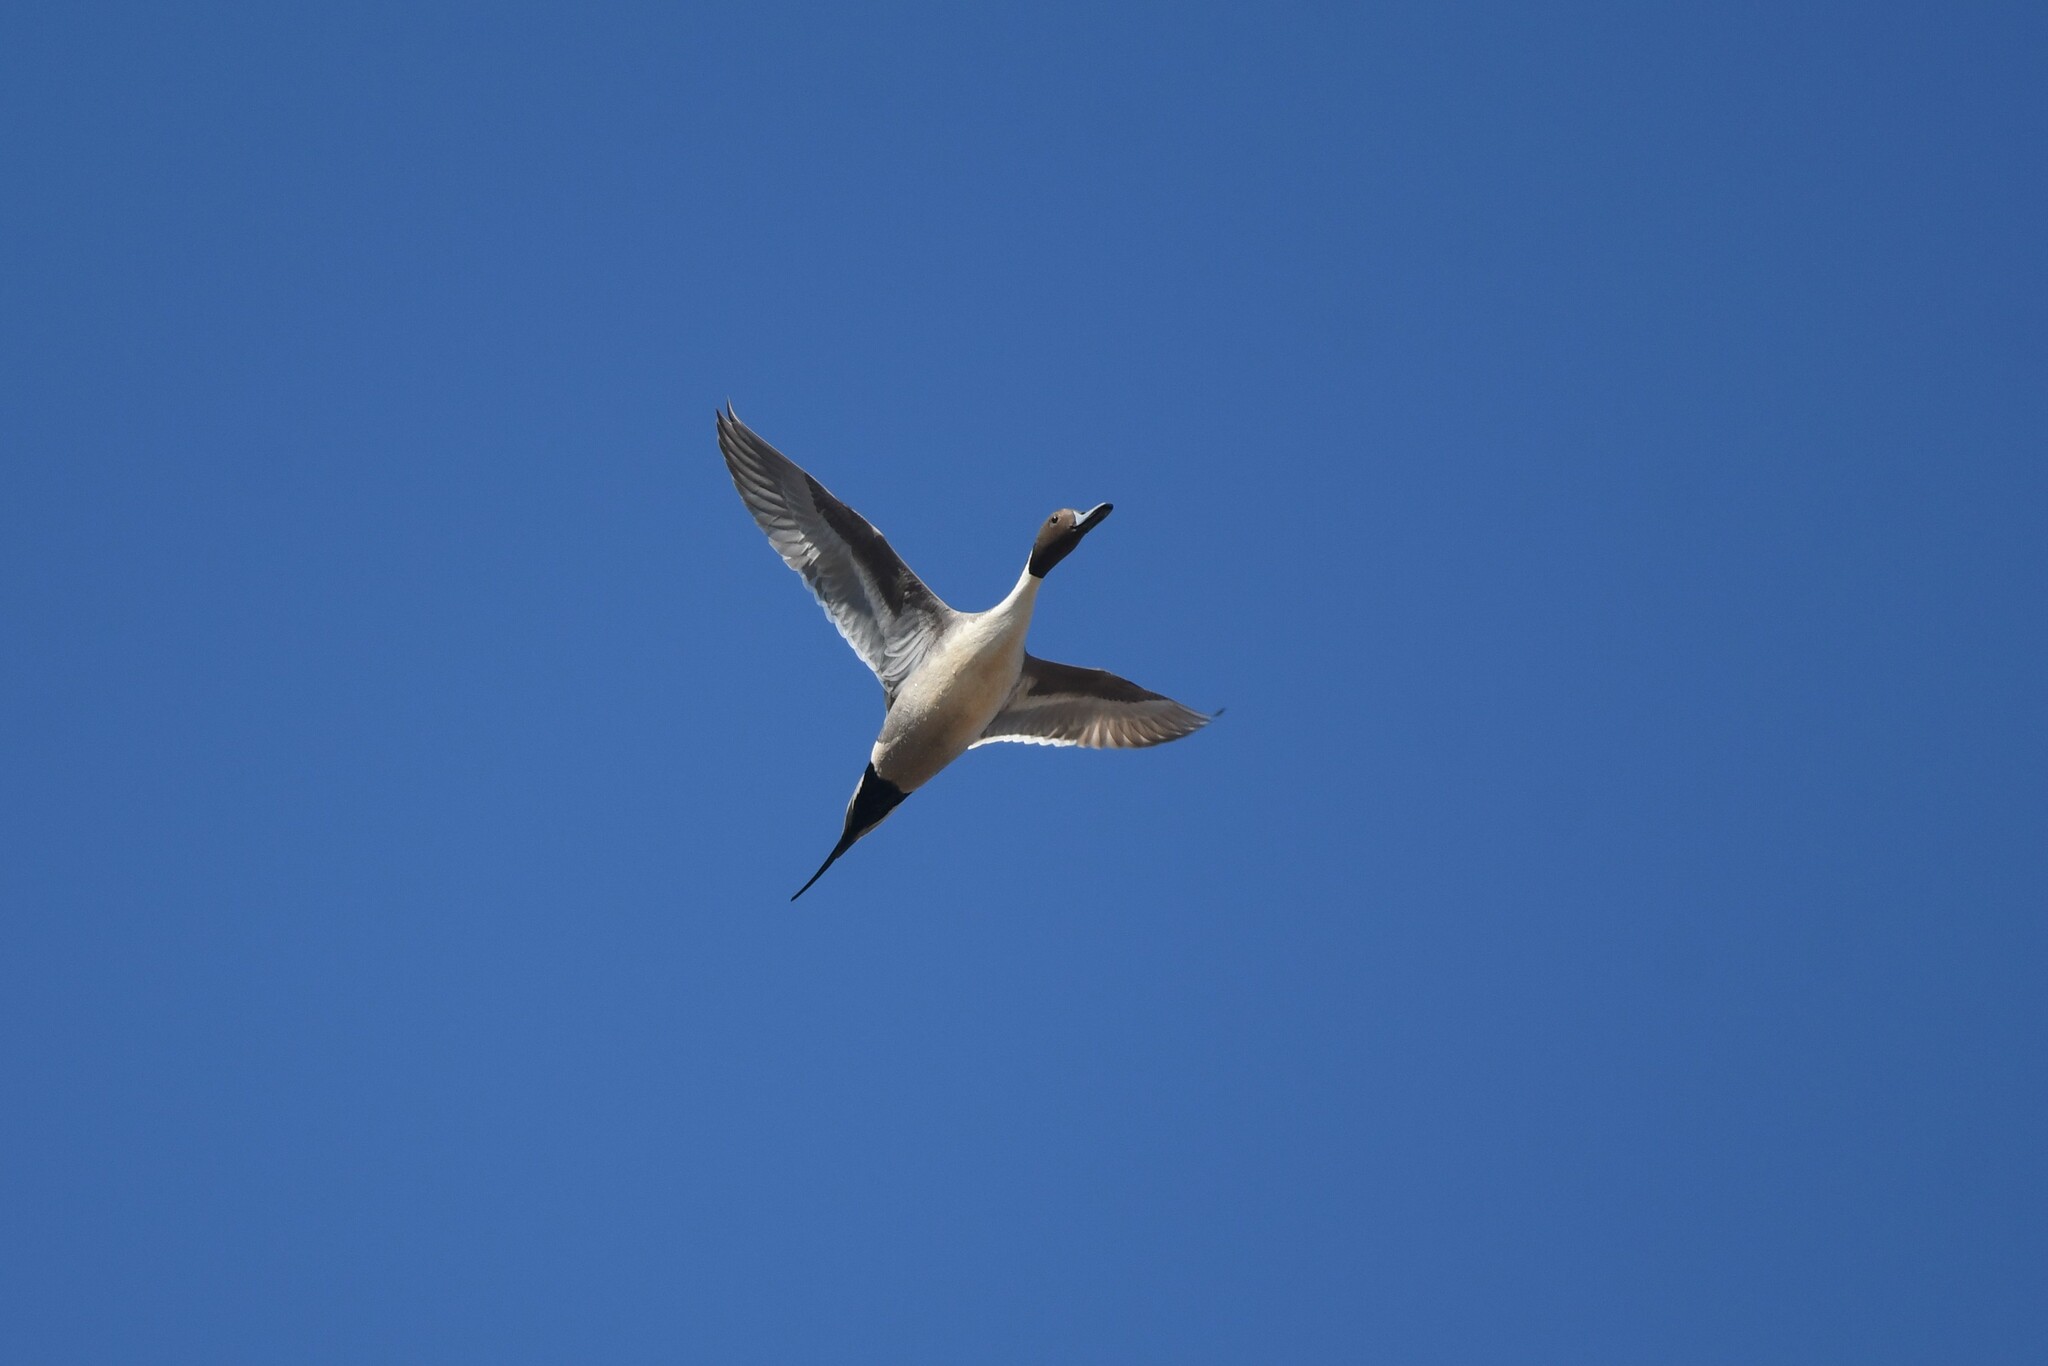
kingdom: Animalia
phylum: Chordata
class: Aves
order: Anseriformes
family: Anatidae
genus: Anas
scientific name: Anas acuta
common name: Northern pintail
